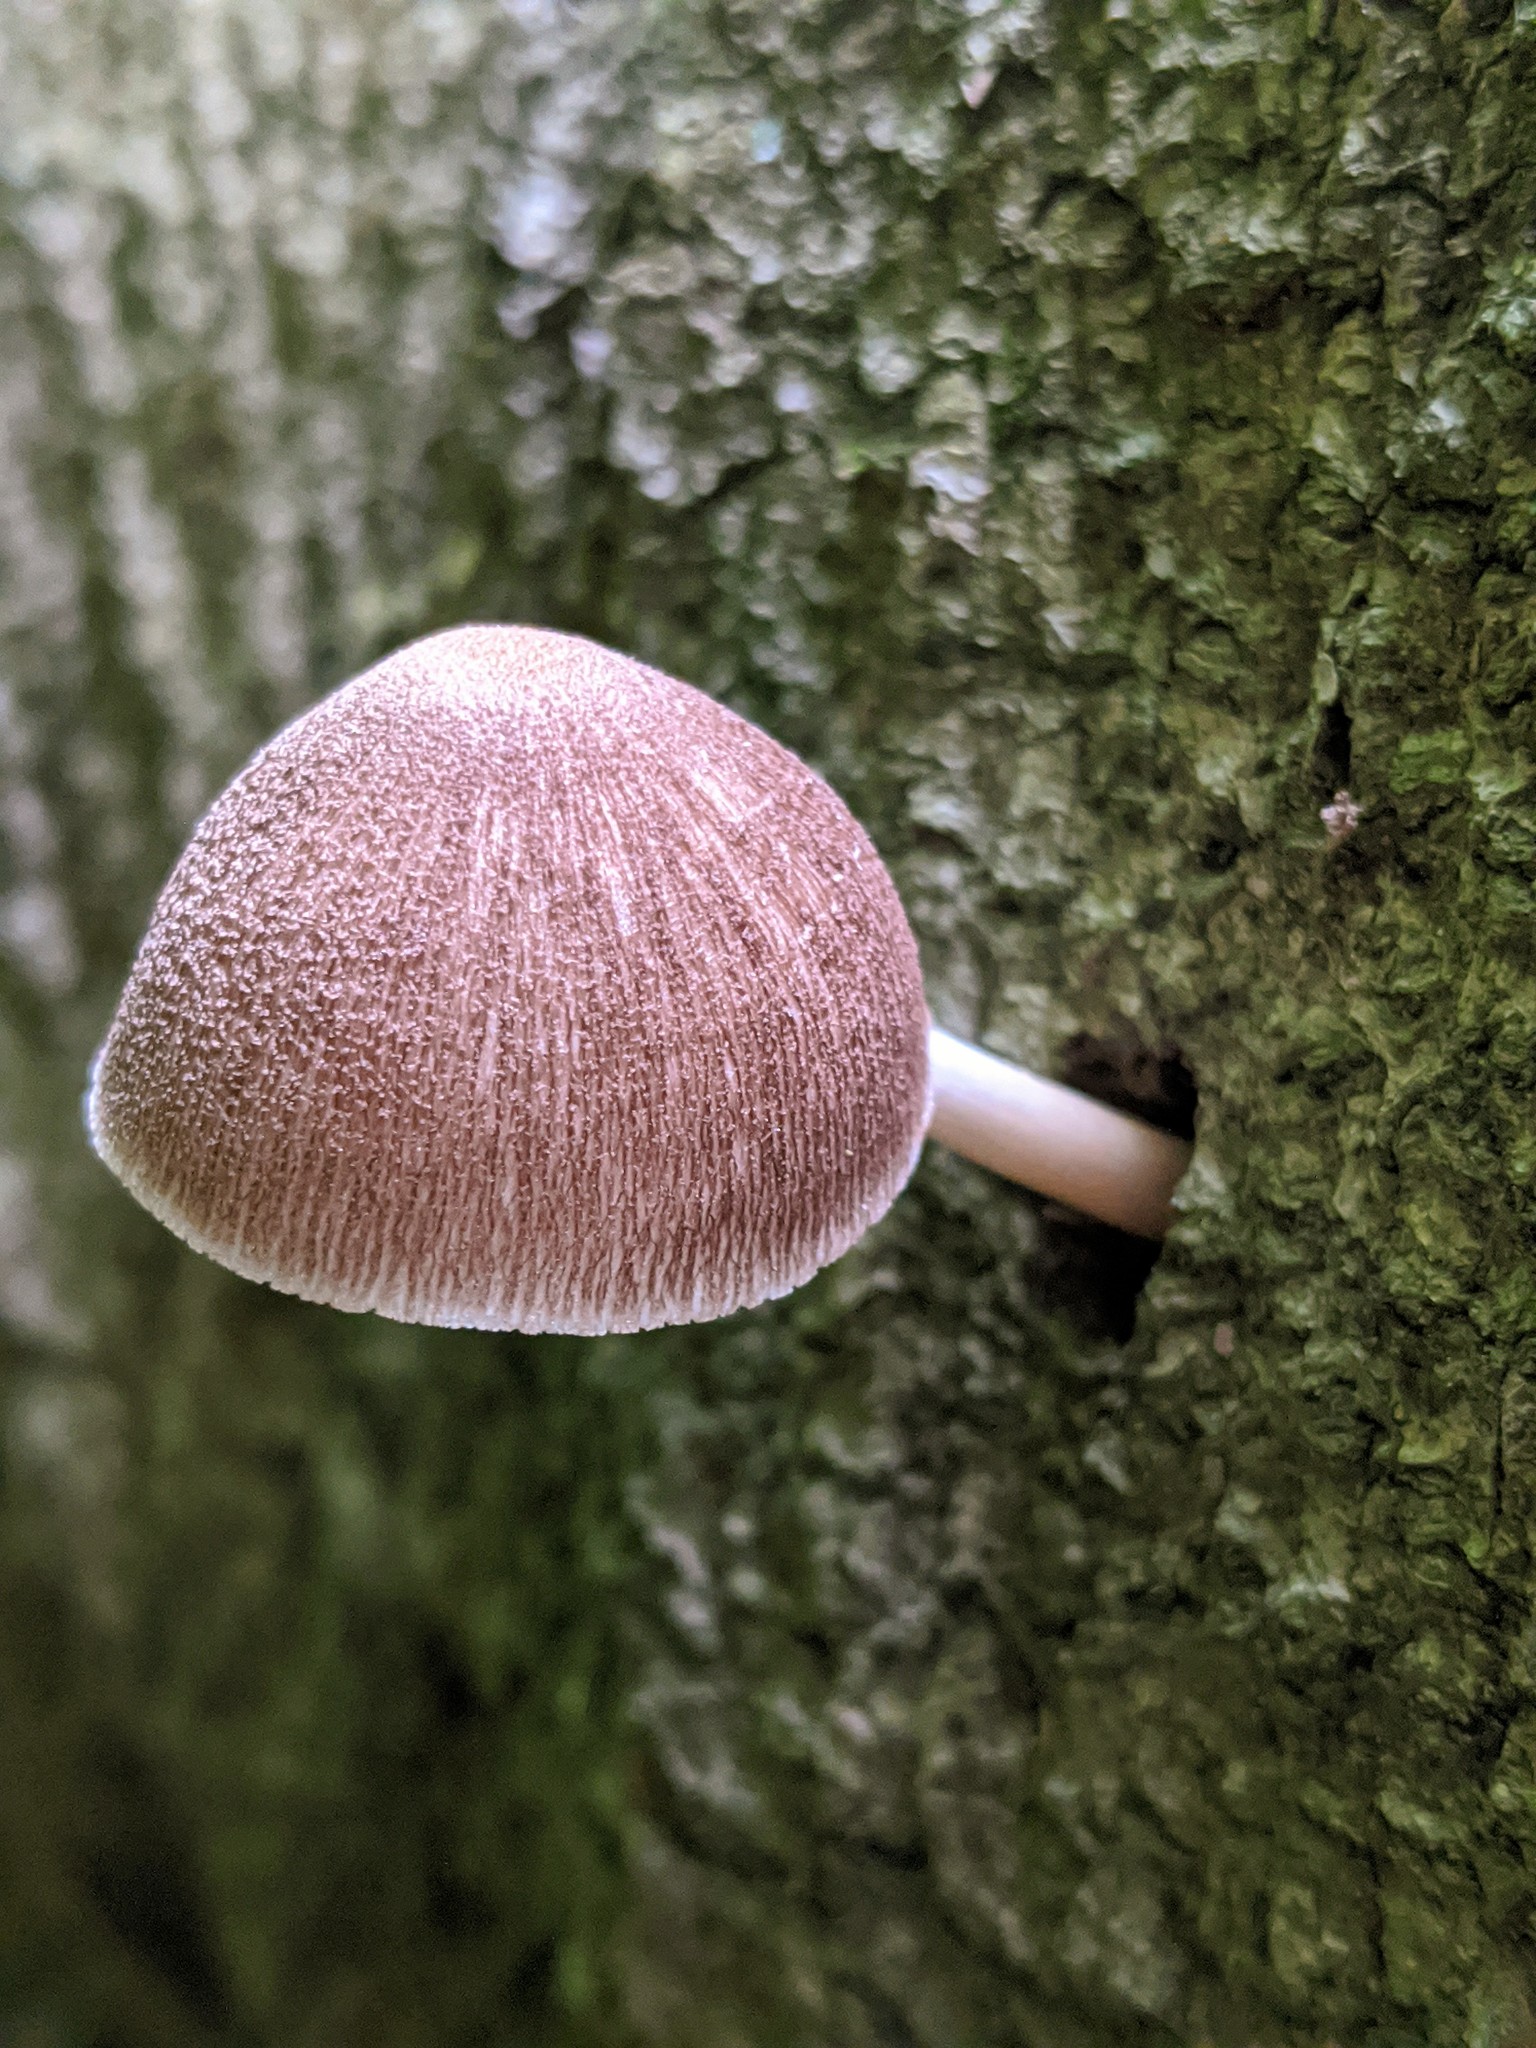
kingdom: Fungi
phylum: Basidiomycota
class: Agaricomycetes
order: Agaricales
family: Pluteaceae
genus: Pluteus
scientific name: Pluteus longistriatus
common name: Pleated pluteus
